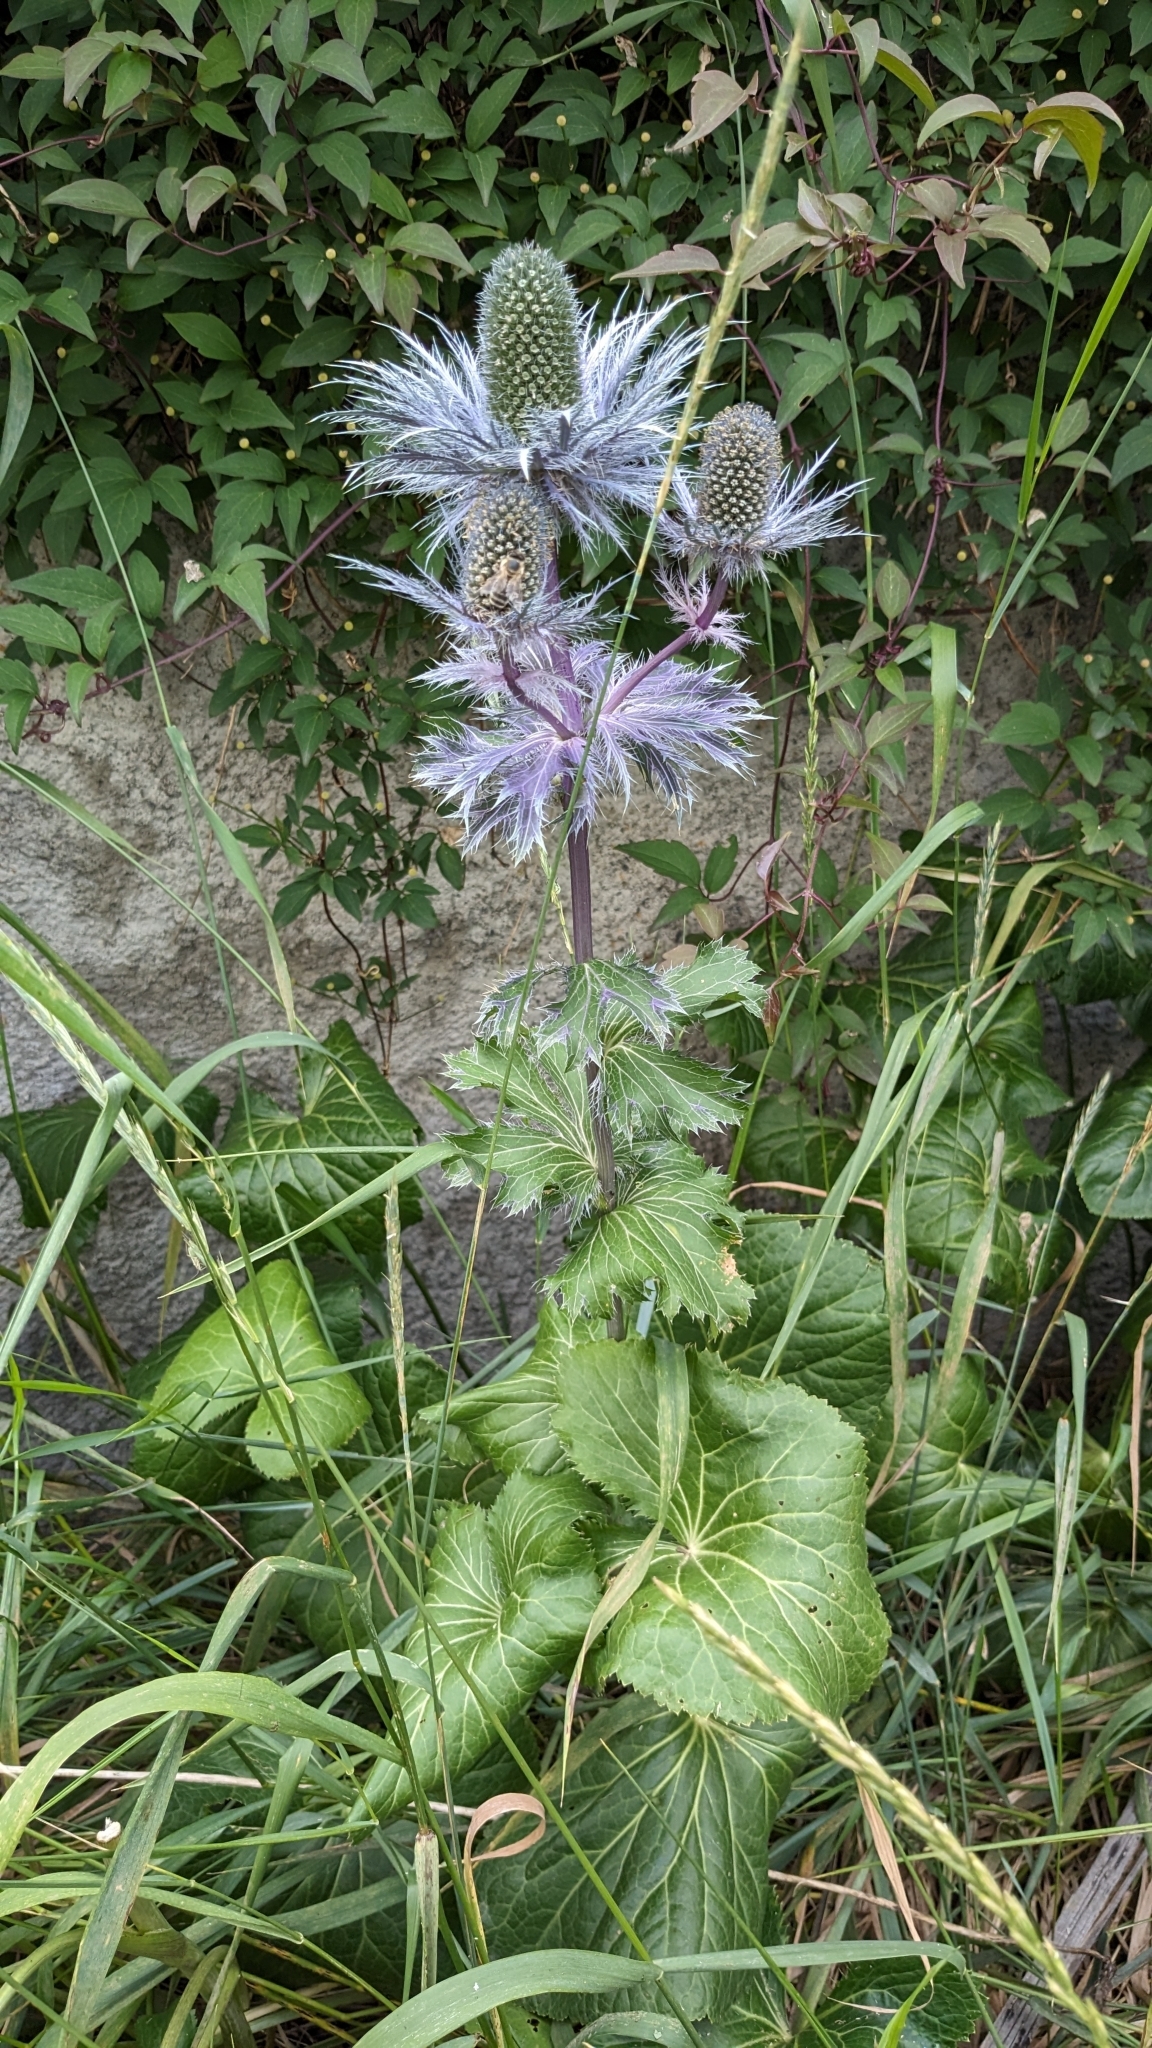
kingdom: Plantae
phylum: Tracheophyta
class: Magnoliopsida
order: Apiales
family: Apiaceae
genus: Eryngium
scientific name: Eryngium alpinum
